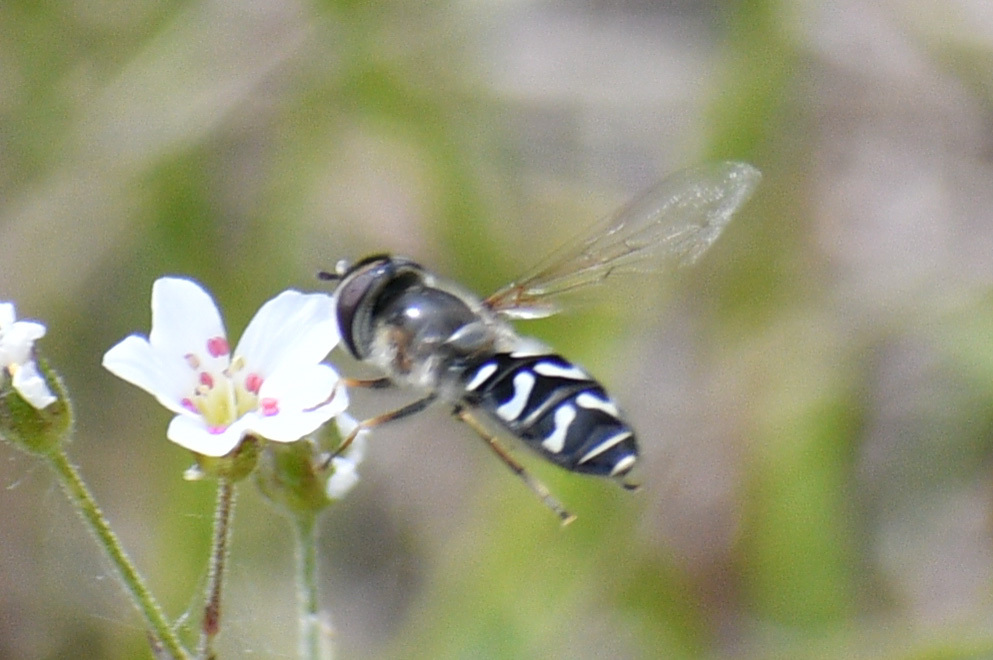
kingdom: Animalia
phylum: Arthropoda
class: Insecta
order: Diptera
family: Syrphidae
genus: Scaeva
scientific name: Scaeva affinis
